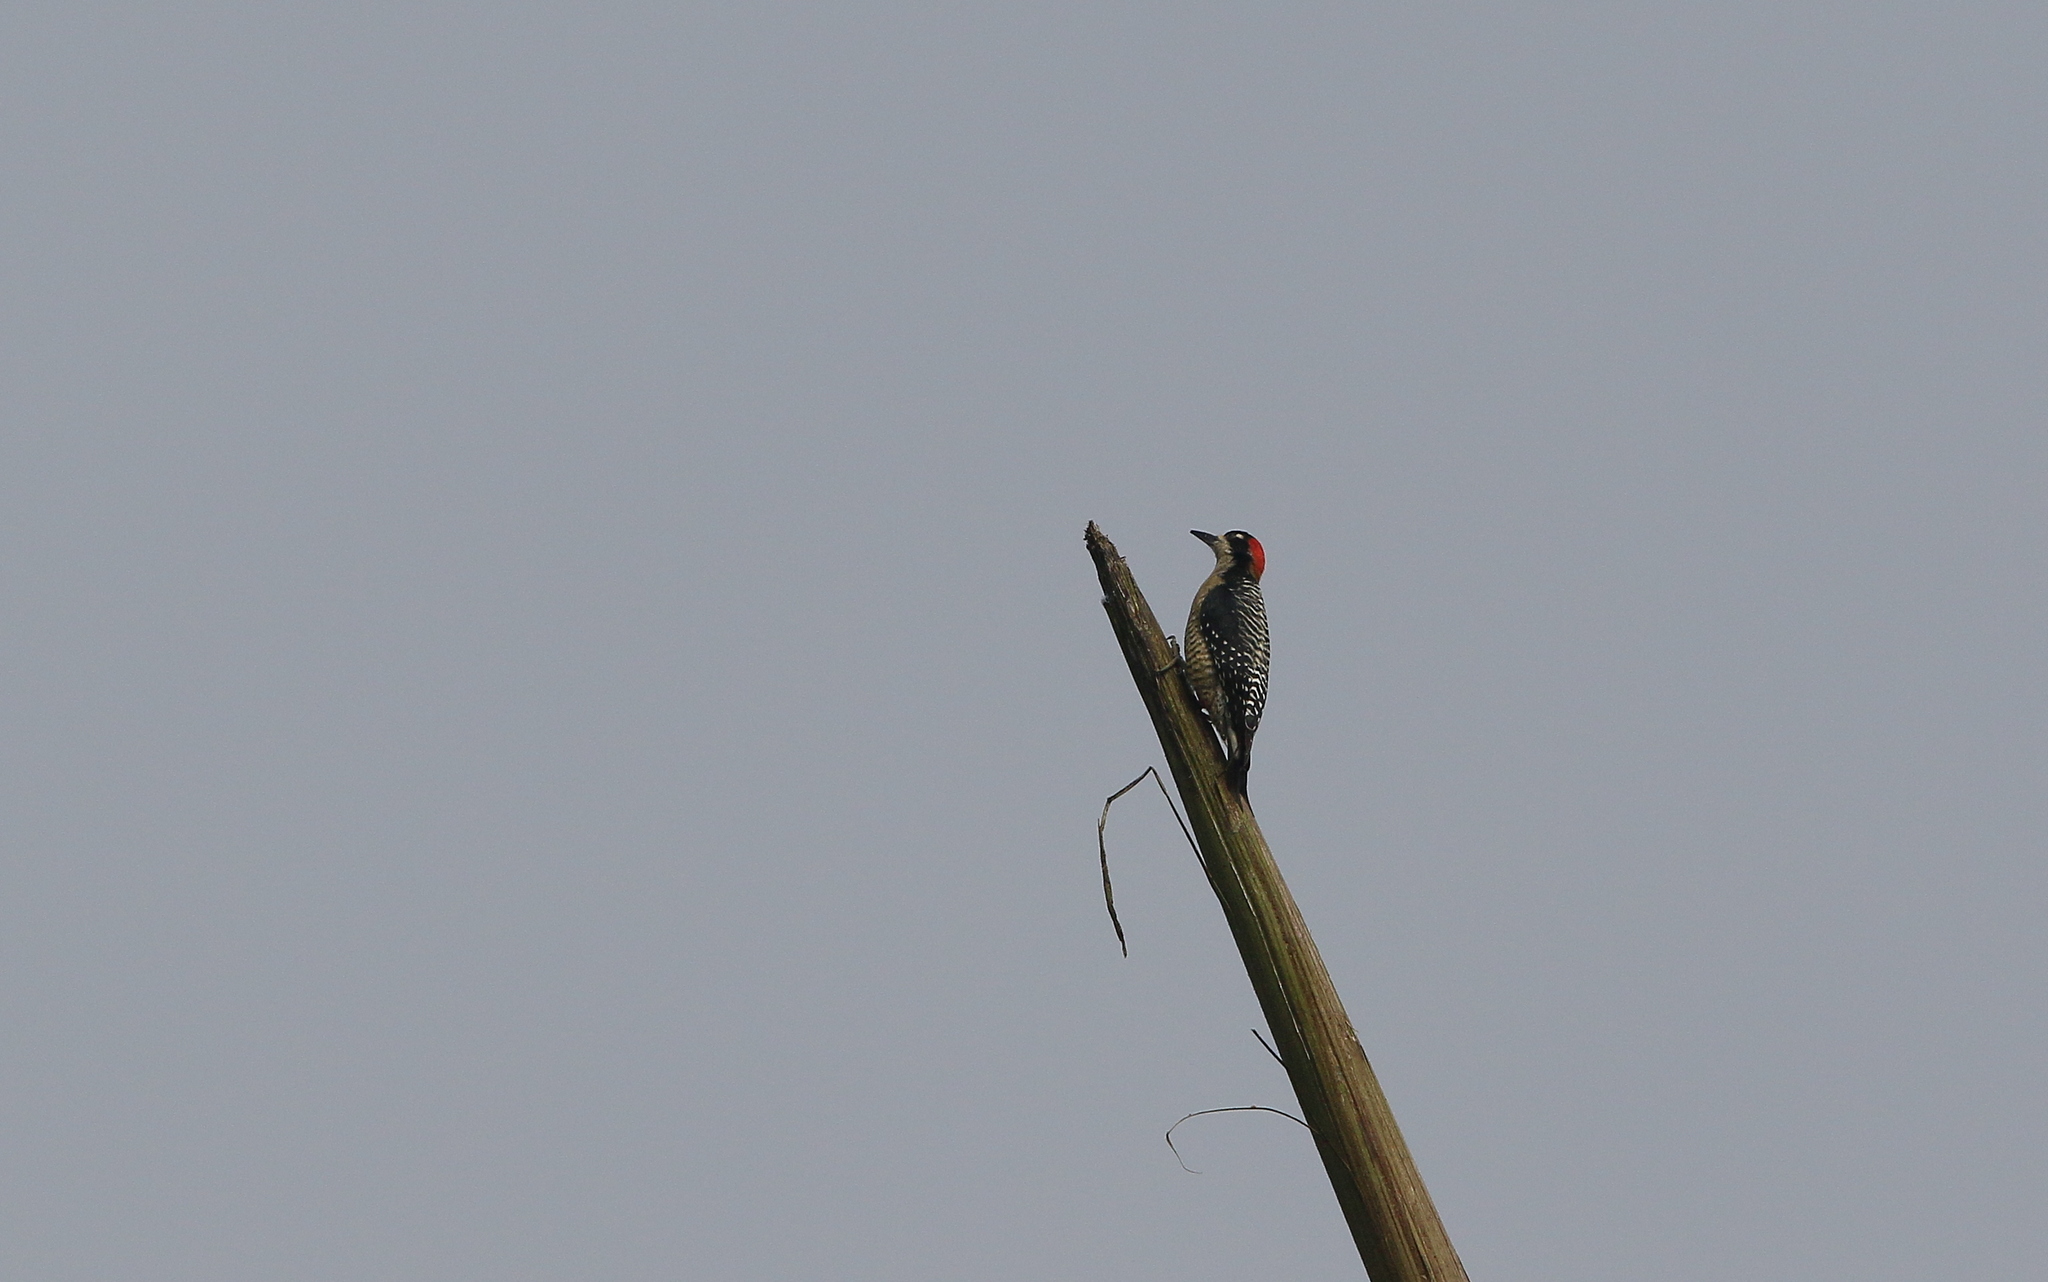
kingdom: Animalia
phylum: Chordata
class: Aves
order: Piciformes
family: Picidae
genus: Melanerpes
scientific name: Melanerpes pucherani
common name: Black-cheeked woodpecker
